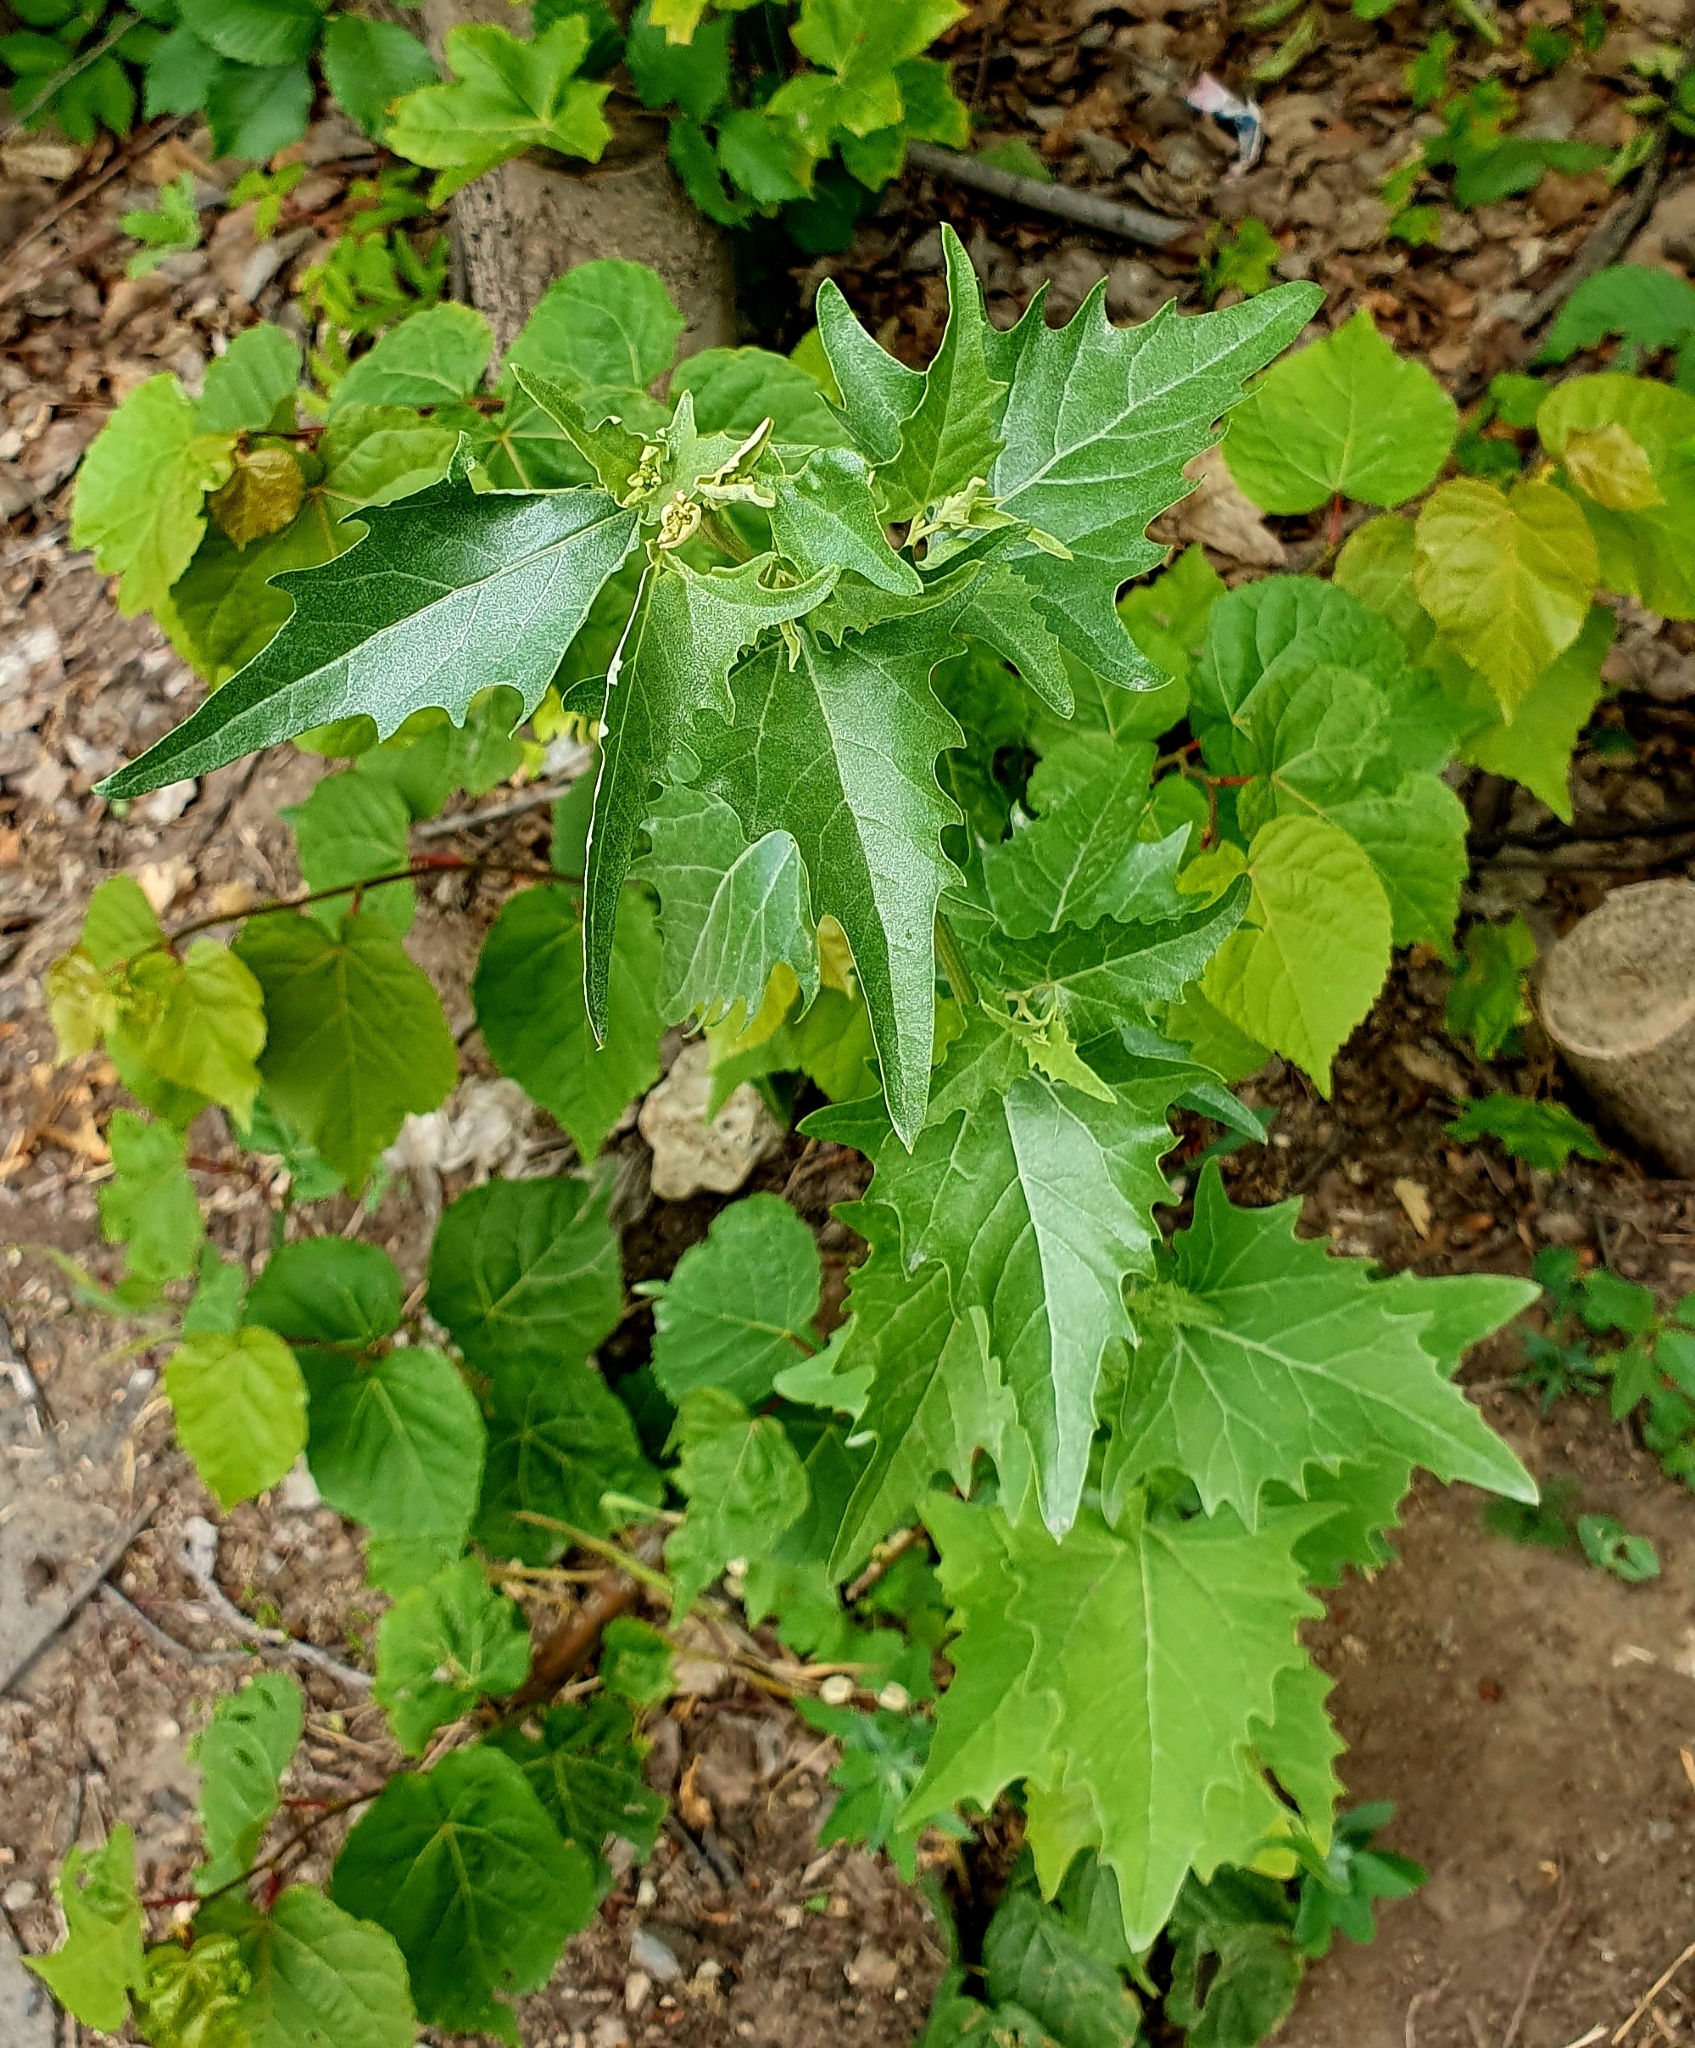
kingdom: Plantae
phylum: Tracheophyta
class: Magnoliopsida
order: Caryophyllales
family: Amaranthaceae
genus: Atriplex
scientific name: Atriplex sagittata
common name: Purple orache
